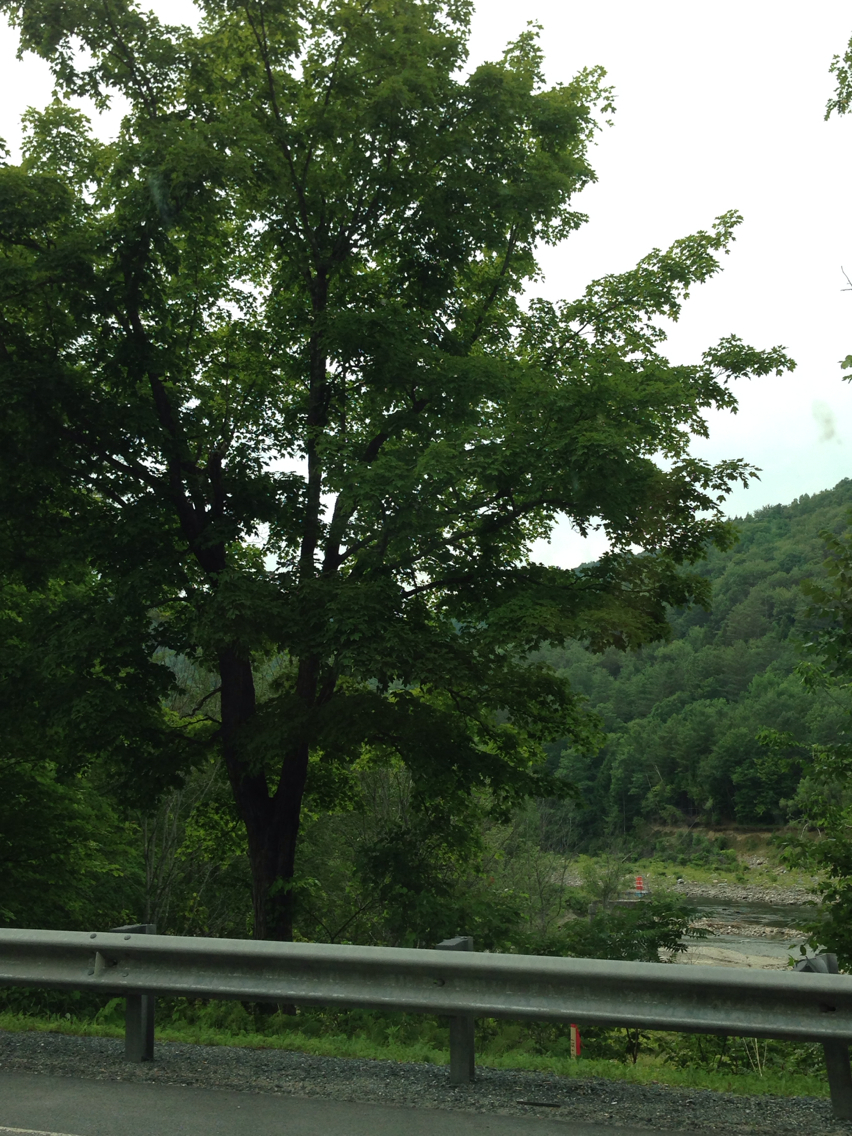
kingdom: Plantae
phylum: Tracheophyta
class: Magnoliopsida
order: Sapindales
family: Sapindaceae
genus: Acer
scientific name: Acer saccharum
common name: Sugar maple
